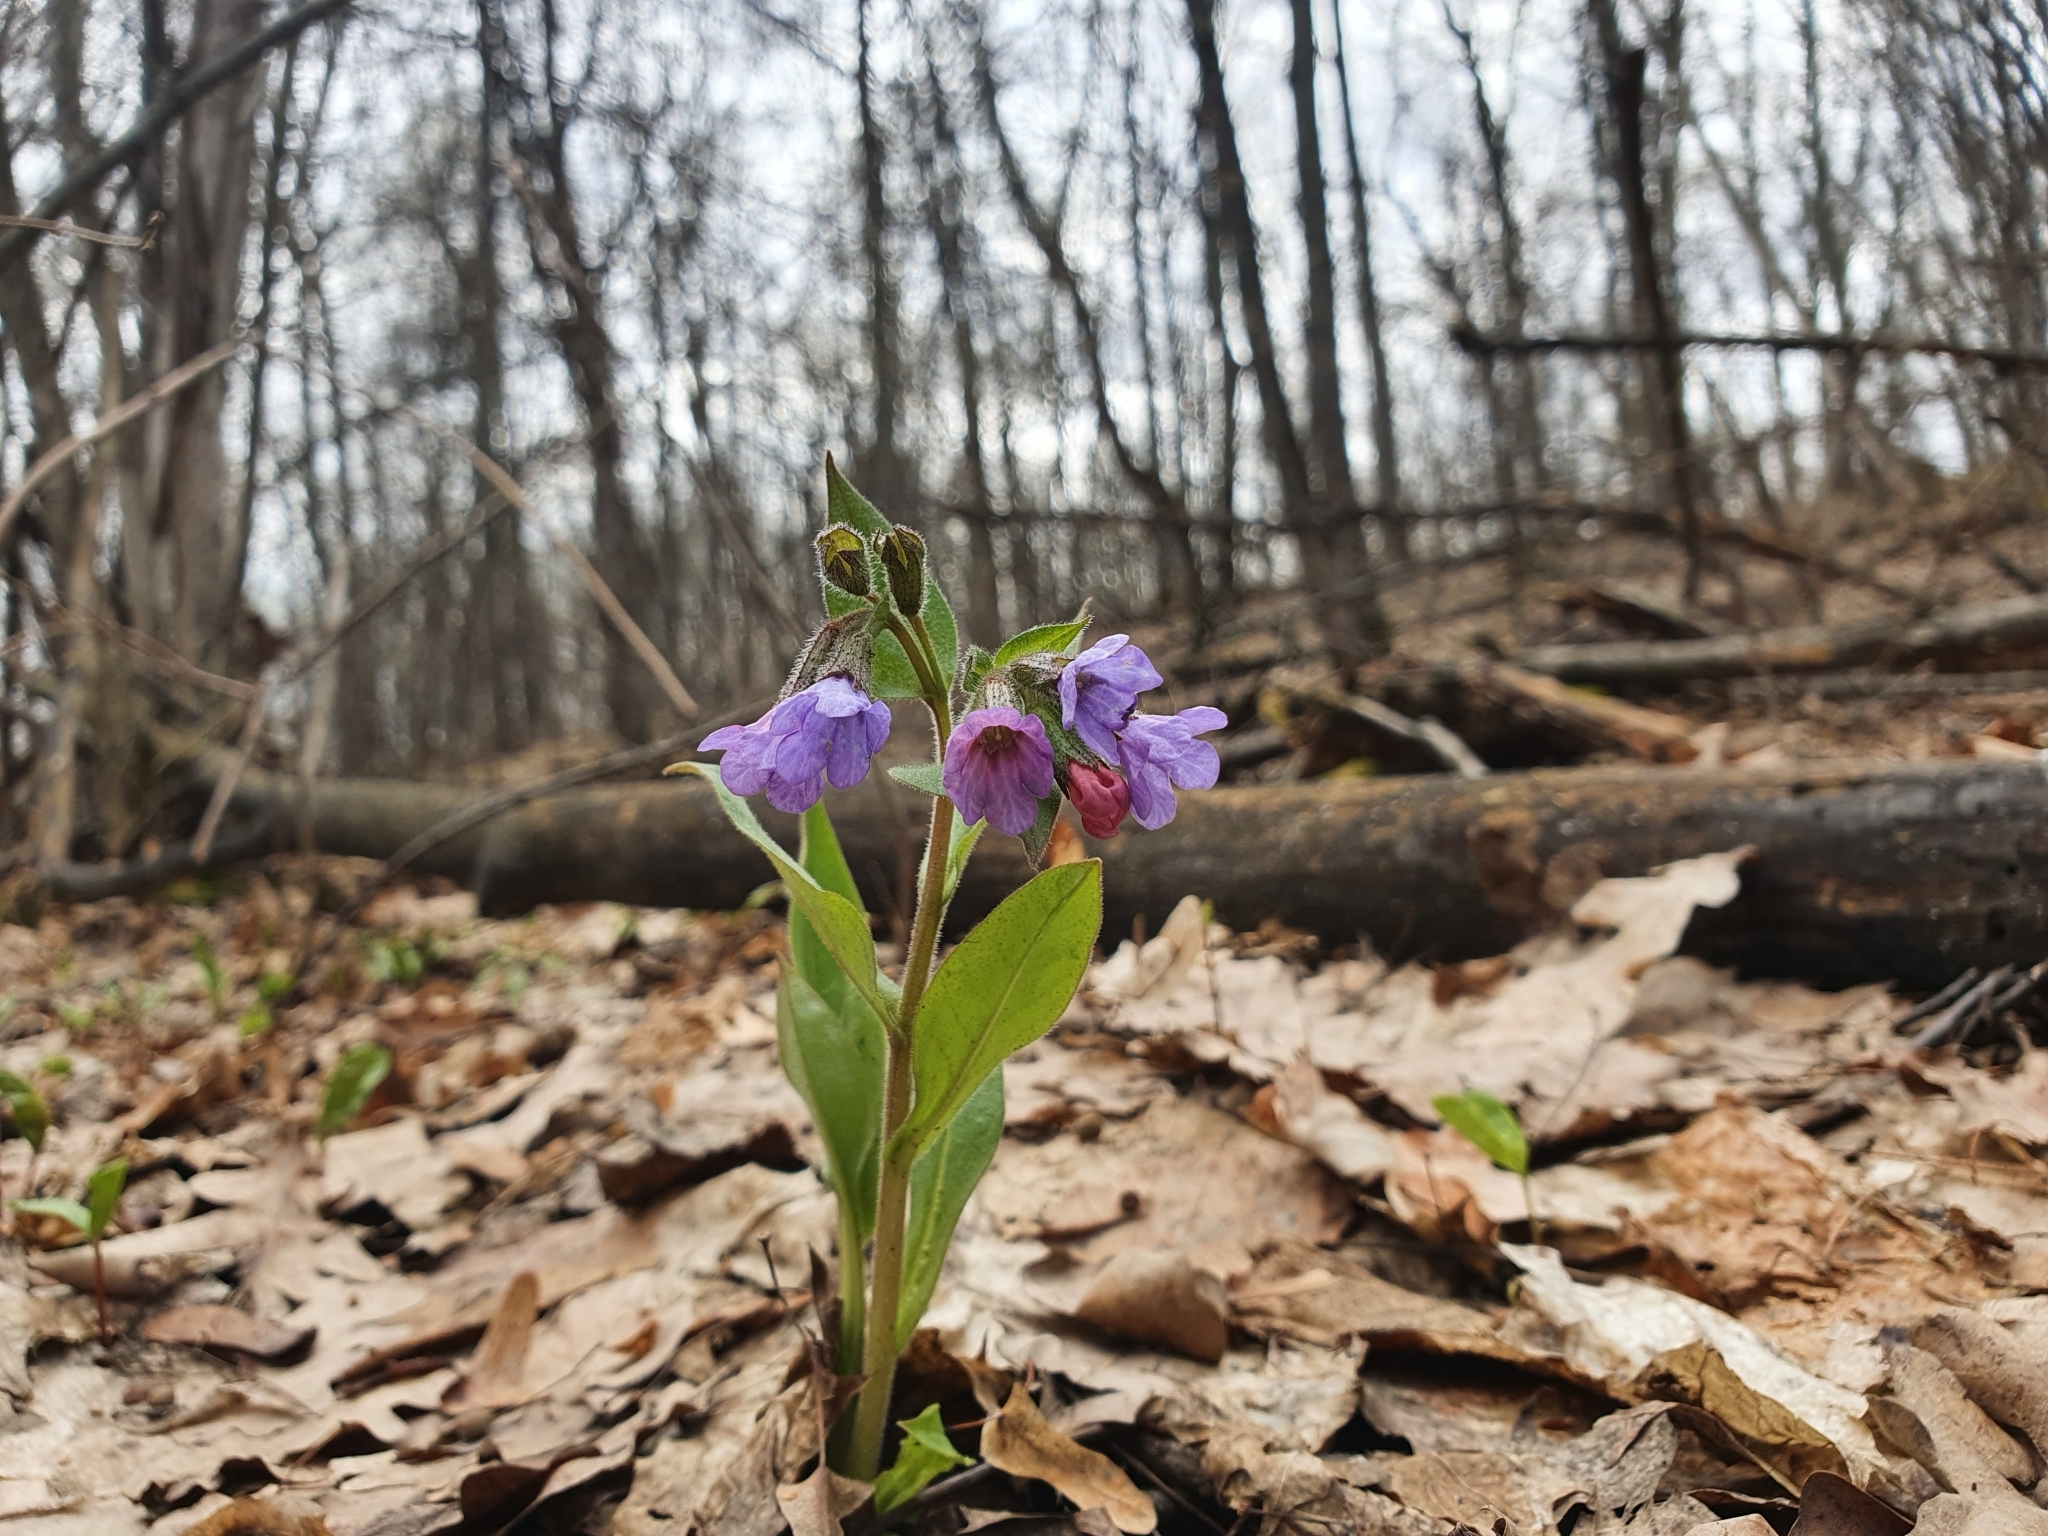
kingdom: Plantae
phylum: Tracheophyta
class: Magnoliopsida
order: Boraginales
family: Boraginaceae
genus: Pulmonaria
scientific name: Pulmonaria obscura
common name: Suffolk lungwort
